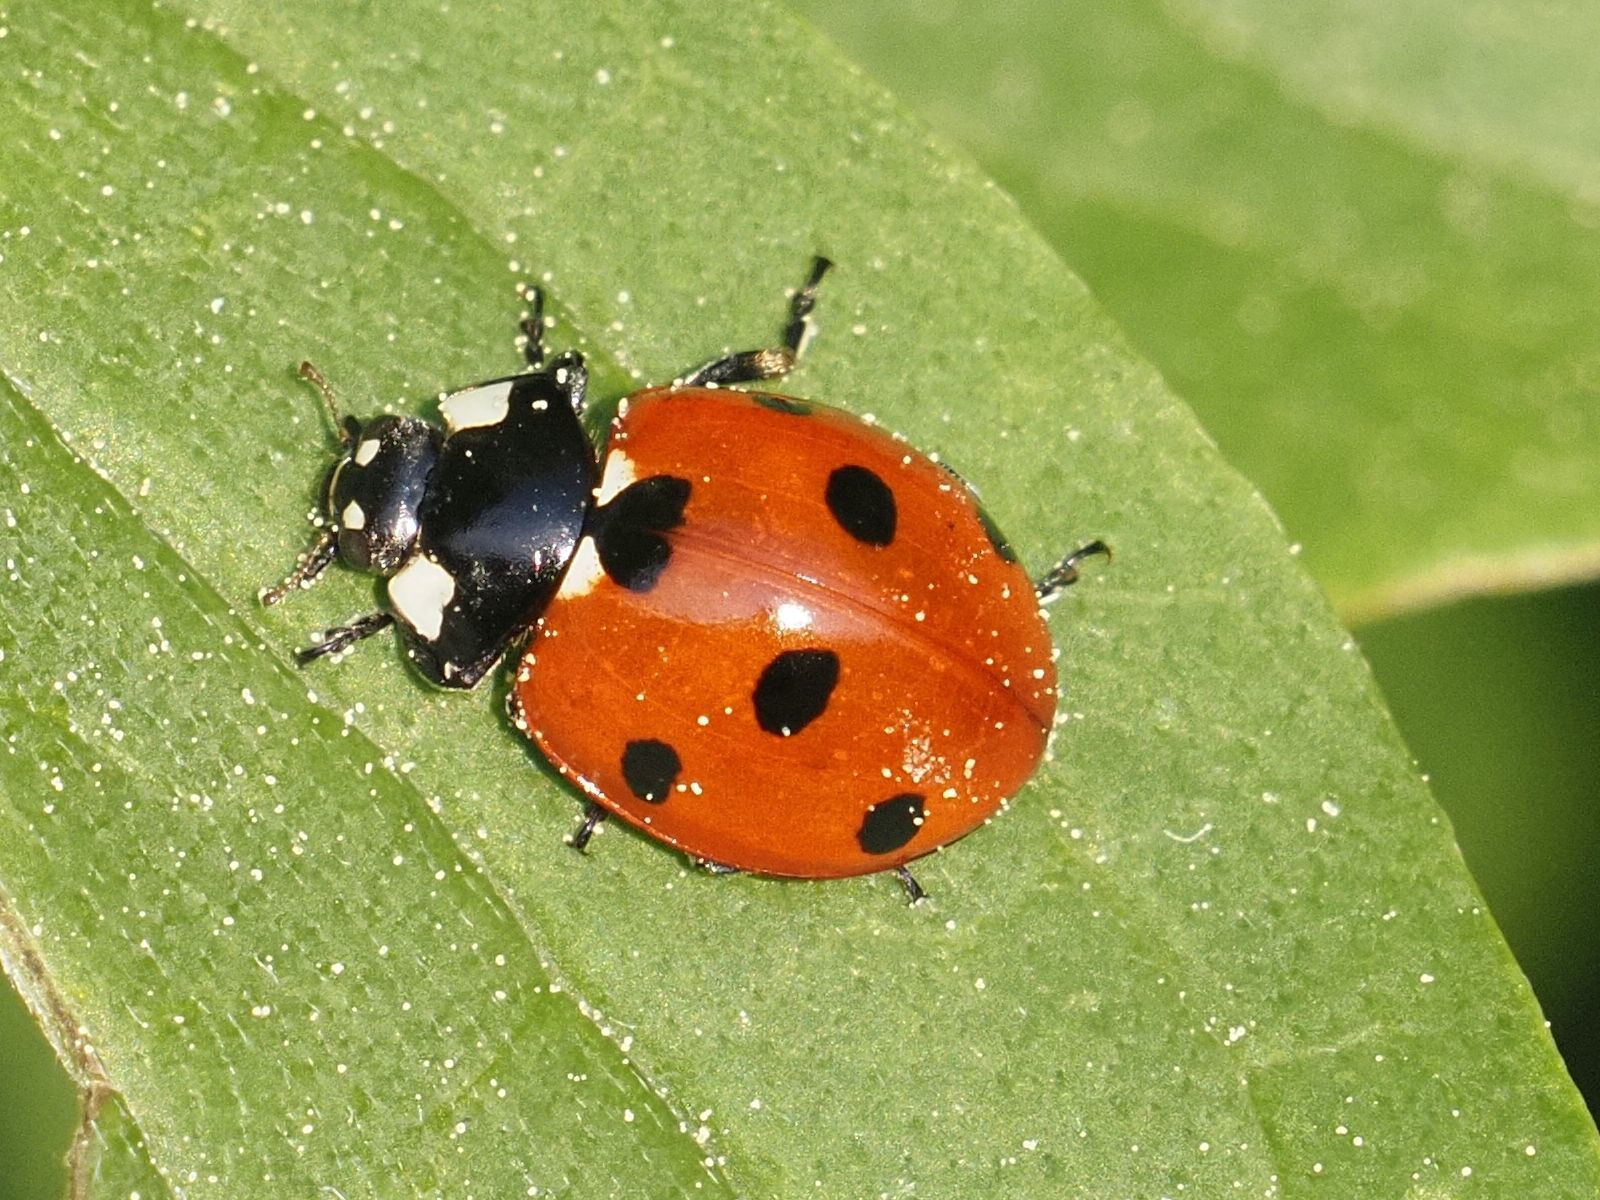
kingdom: Animalia
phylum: Arthropoda
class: Insecta
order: Coleoptera
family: Coccinellidae
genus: Coccinella
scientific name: Coccinella septempunctata
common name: Sevenspotted lady beetle
